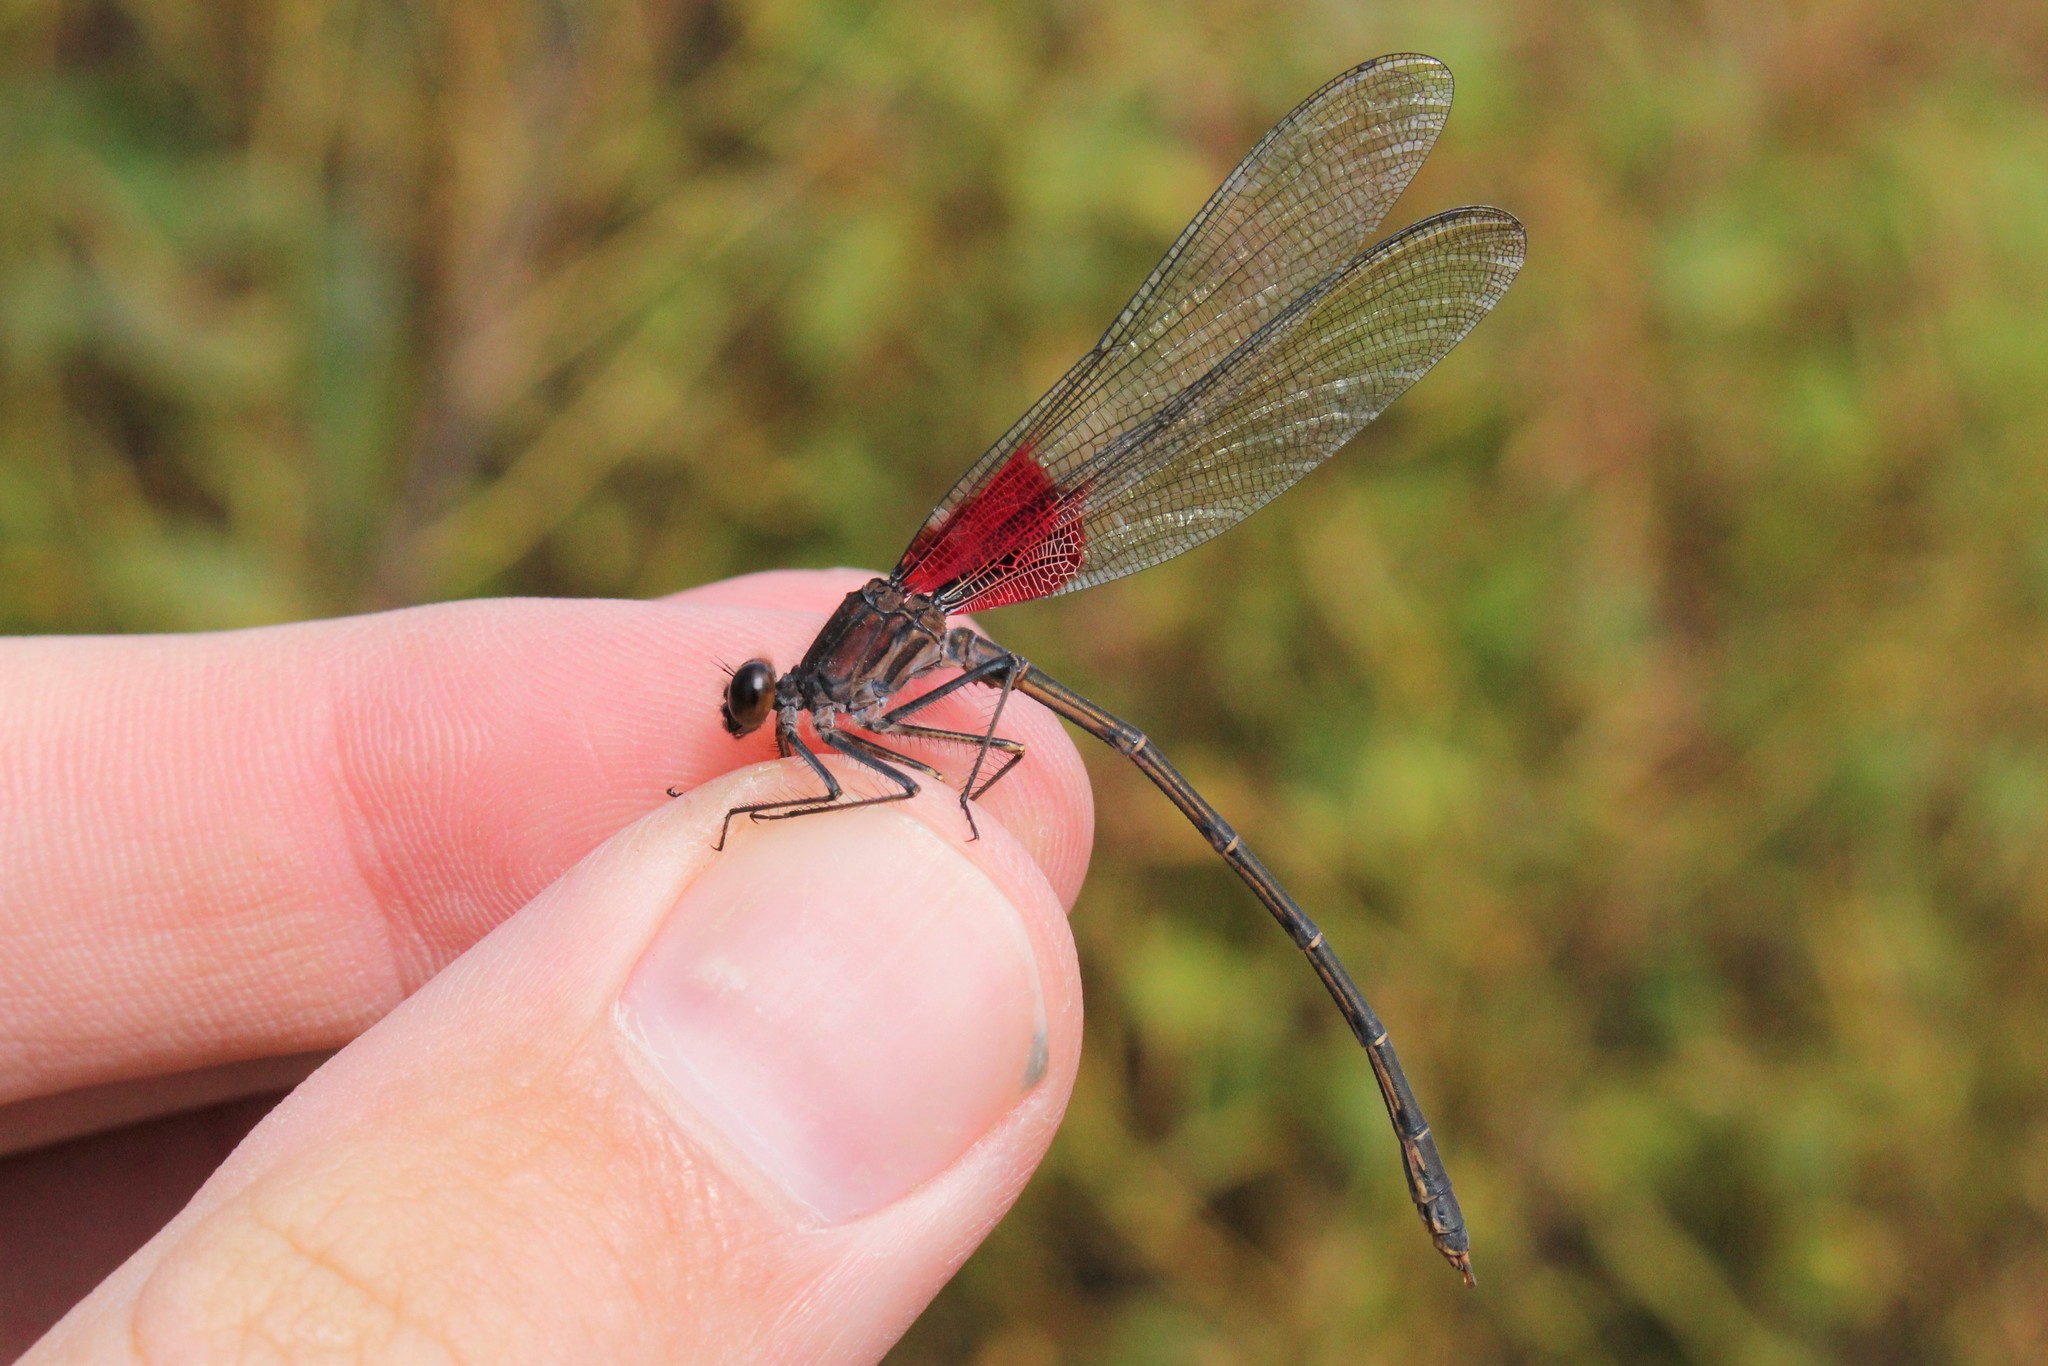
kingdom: Animalia
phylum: Arthropoda
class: Insecta
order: Odonata
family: Calopterygidae
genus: Hetaerina
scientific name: Hetaerina americana
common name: American rubyspot
